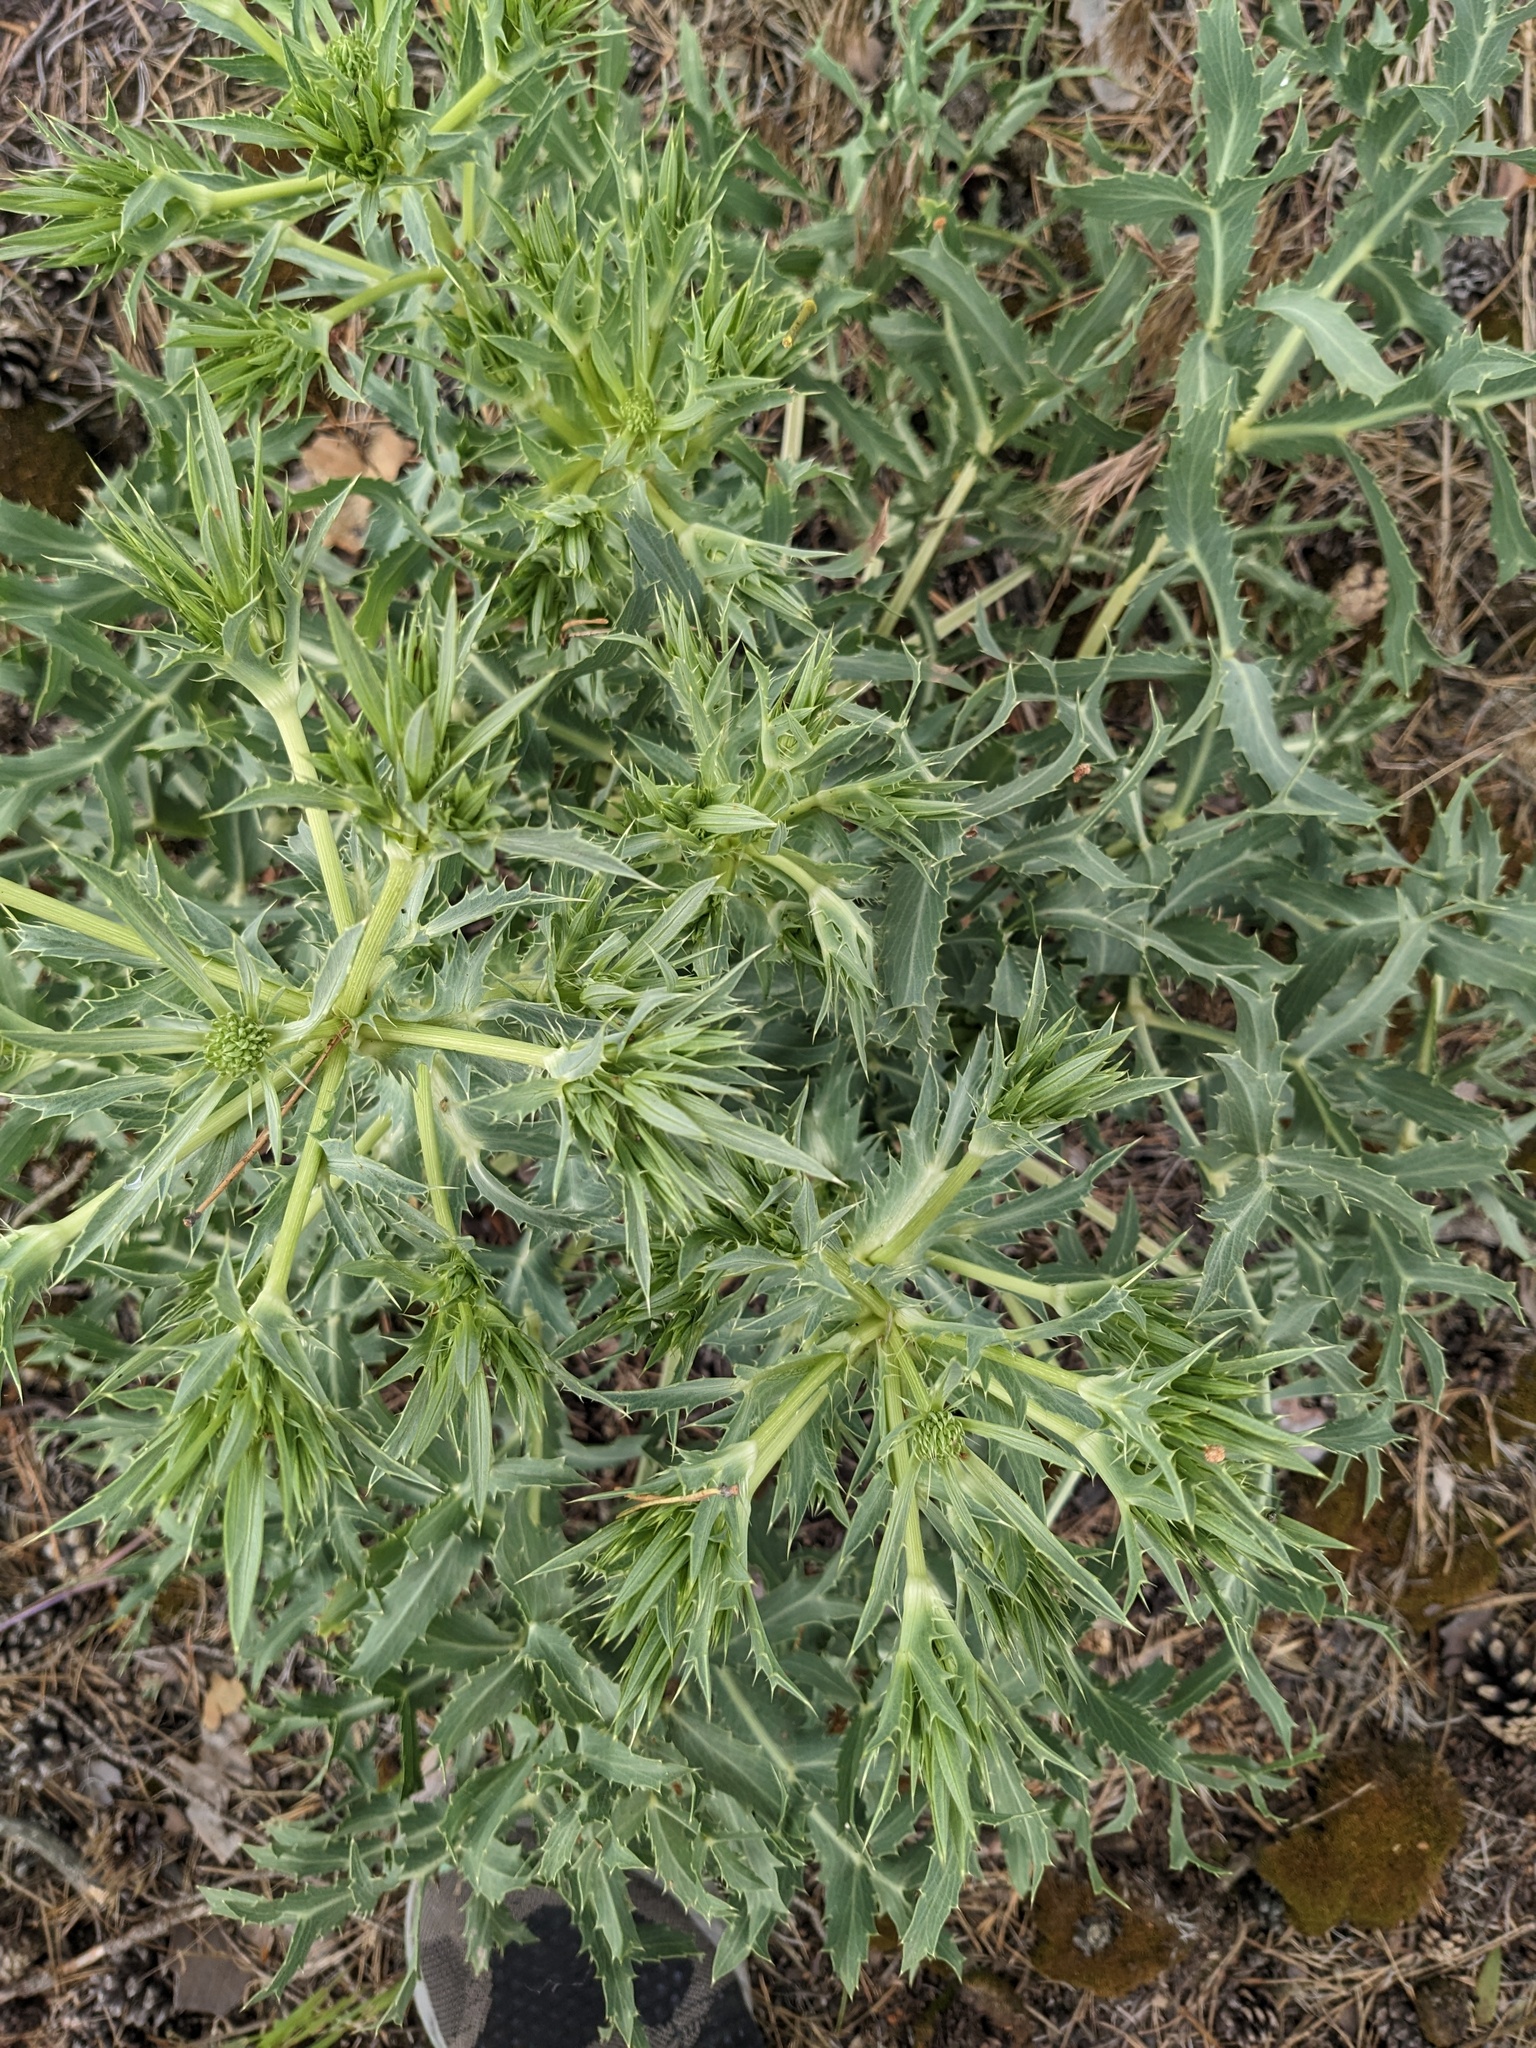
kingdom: Plantae
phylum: Tracheophyta
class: Magnoliopsida
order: Apiales
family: Apiaceae
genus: Eryngium
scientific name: Eryngium campestre
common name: Field eryngo
